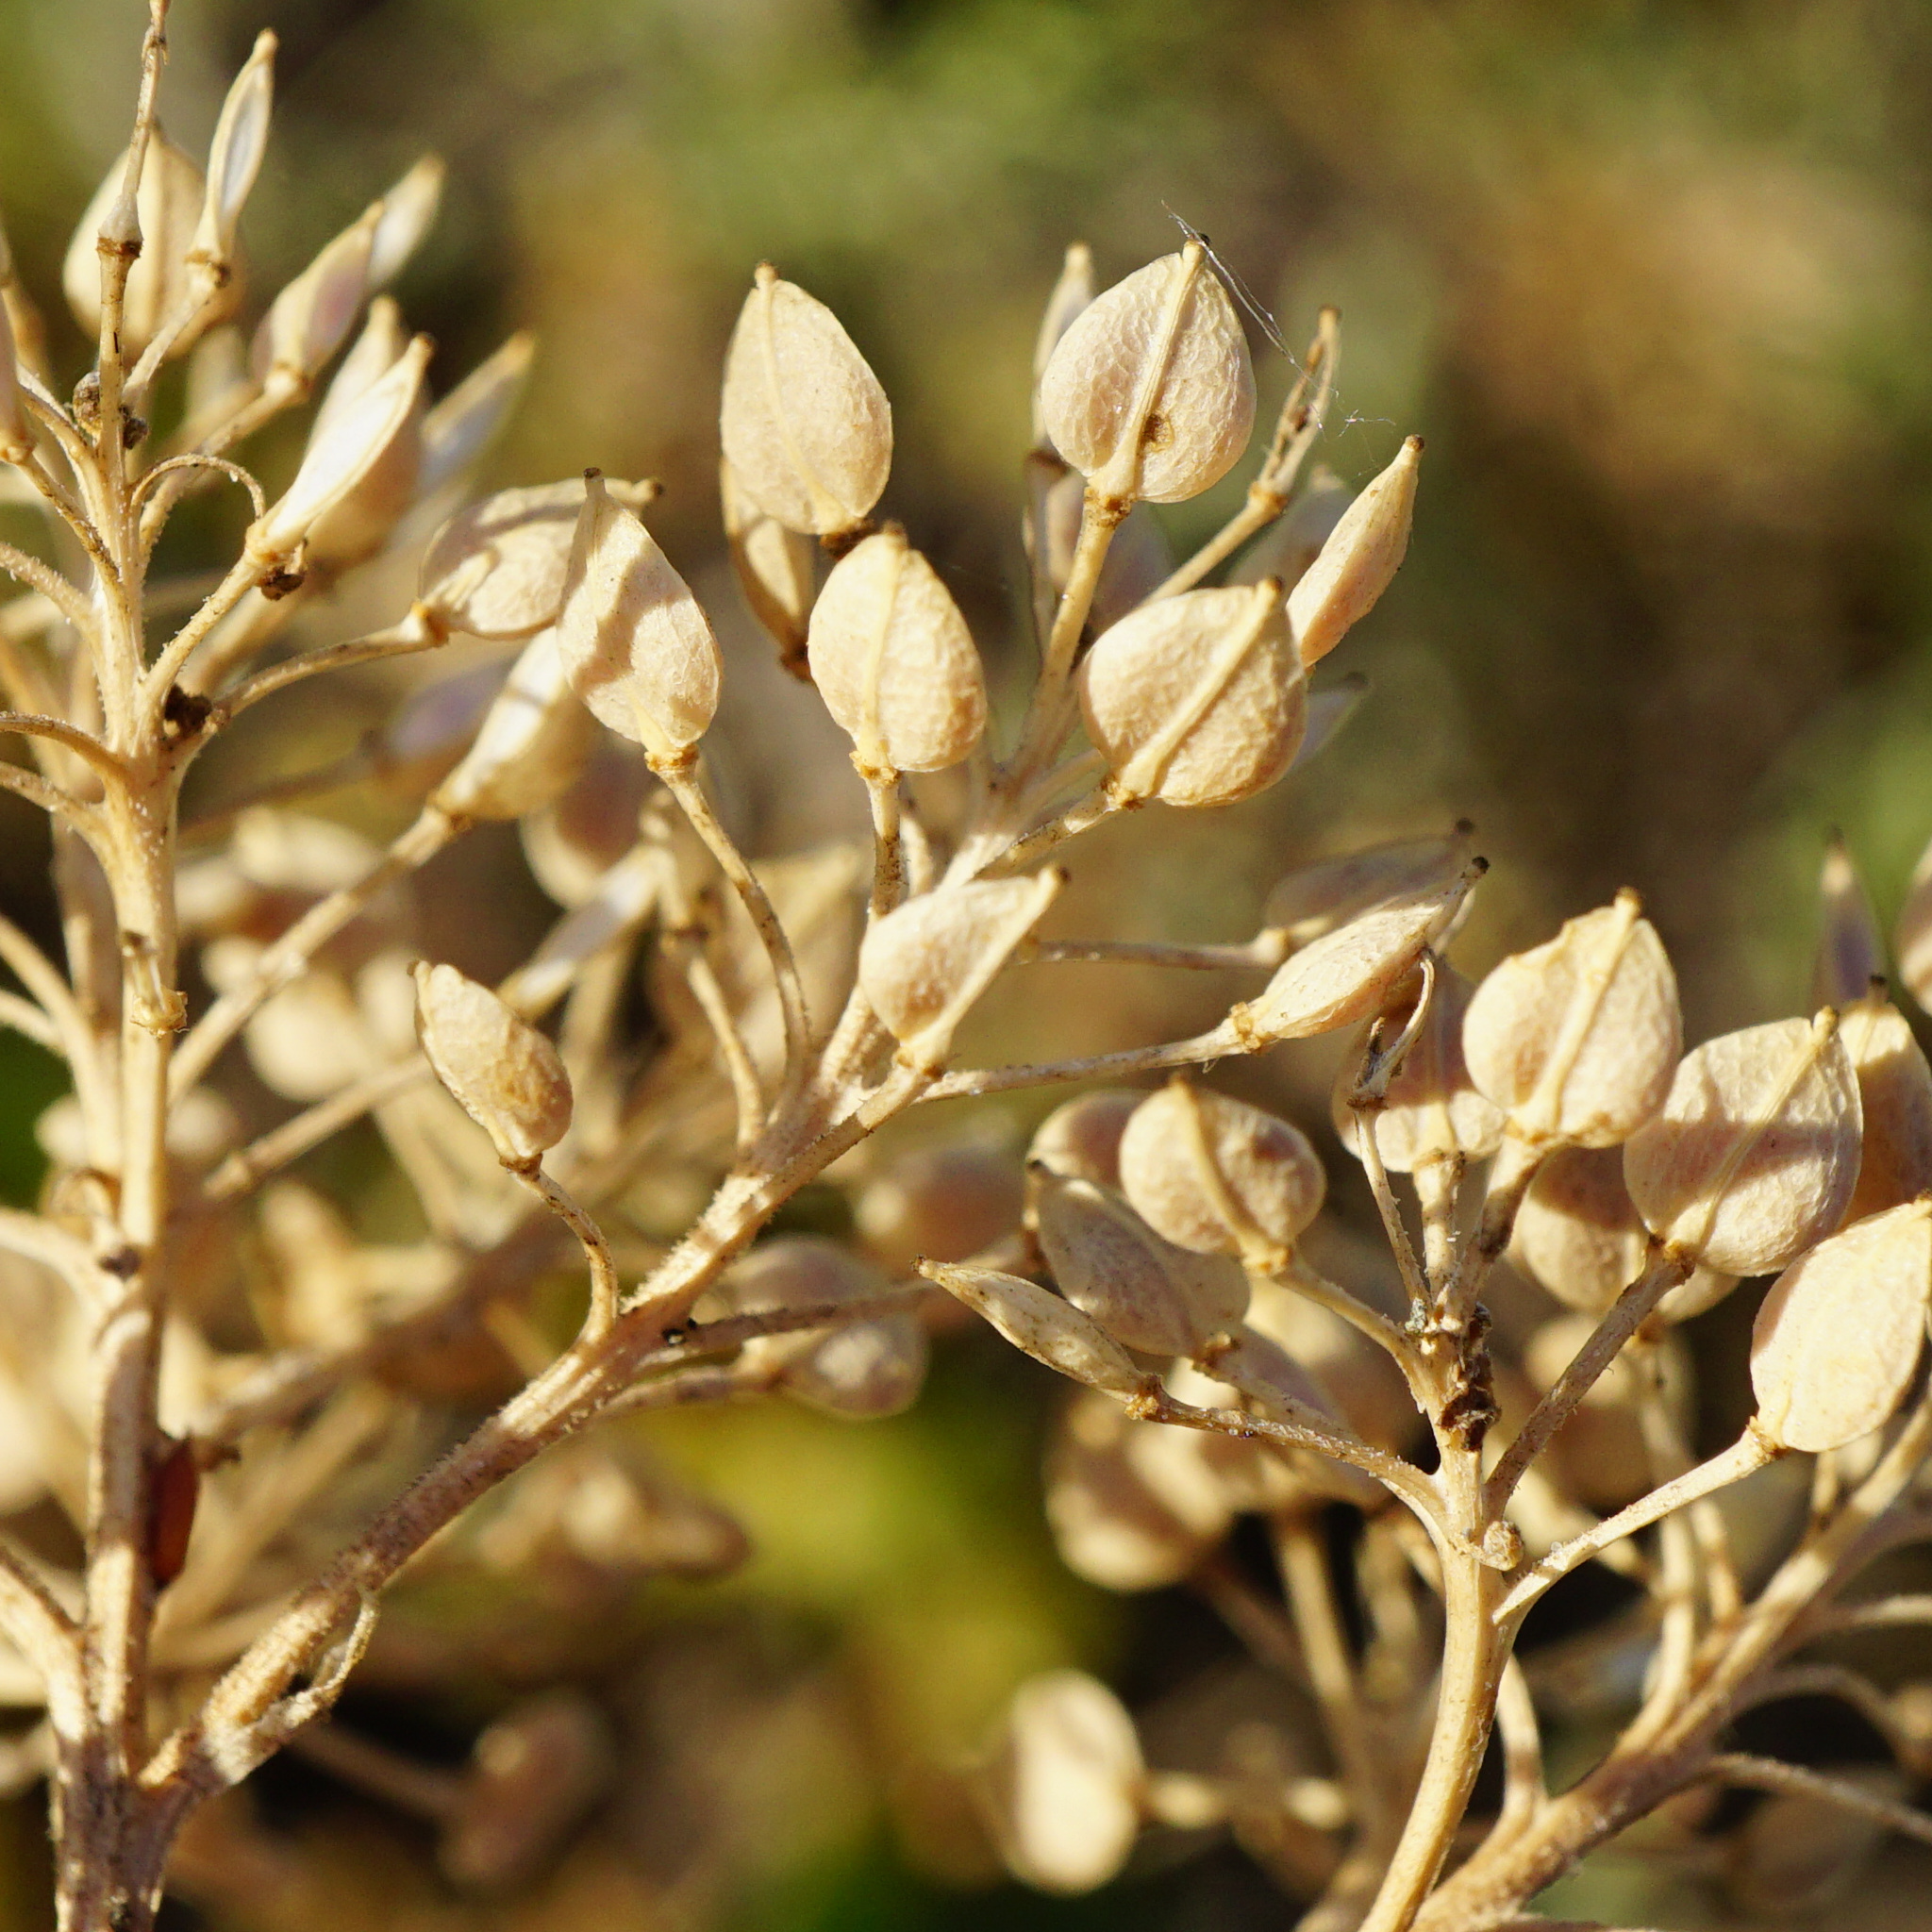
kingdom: Plantae
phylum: Tracheophyta
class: Magnoliopsida
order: Brassicales
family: Brassicaceae
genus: Lepidium
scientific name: Lepidium cartilagineum
